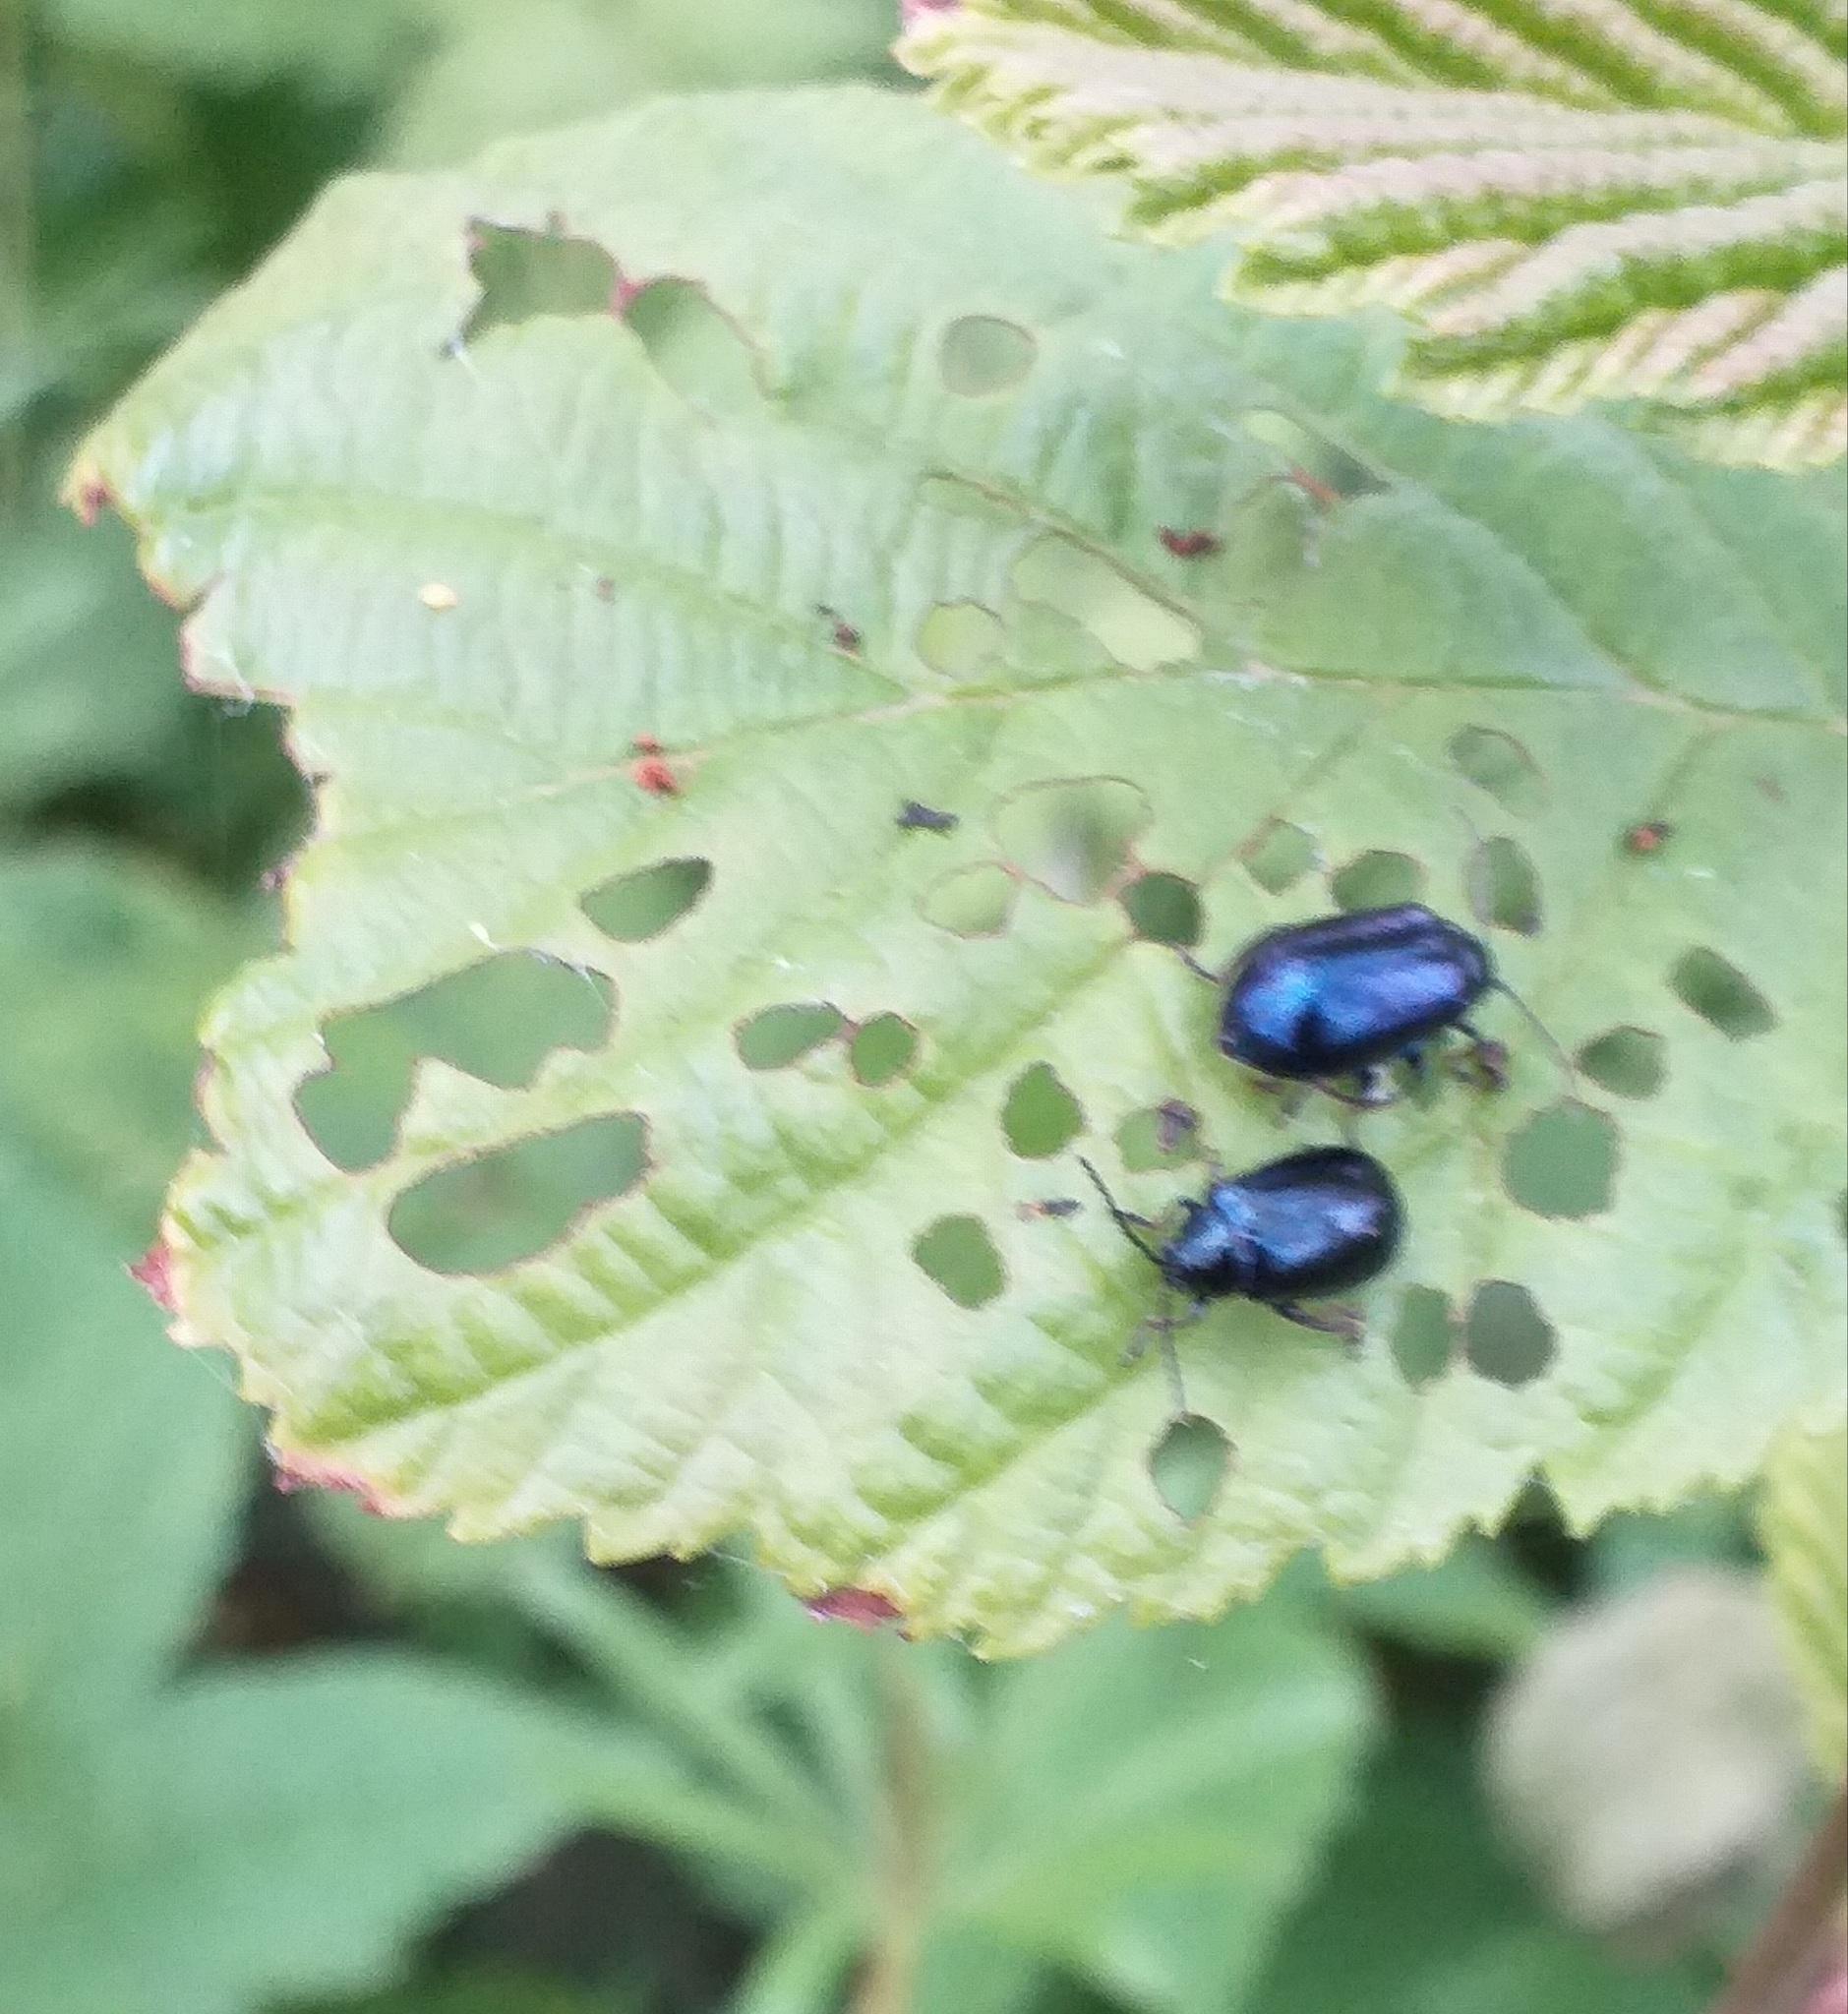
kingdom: Animalia
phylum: Arthropoda
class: Insecta
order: Coleoptera
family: Chrysomelidae
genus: Agelastica
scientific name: Agelastica alni
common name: Alder leaf beetle
